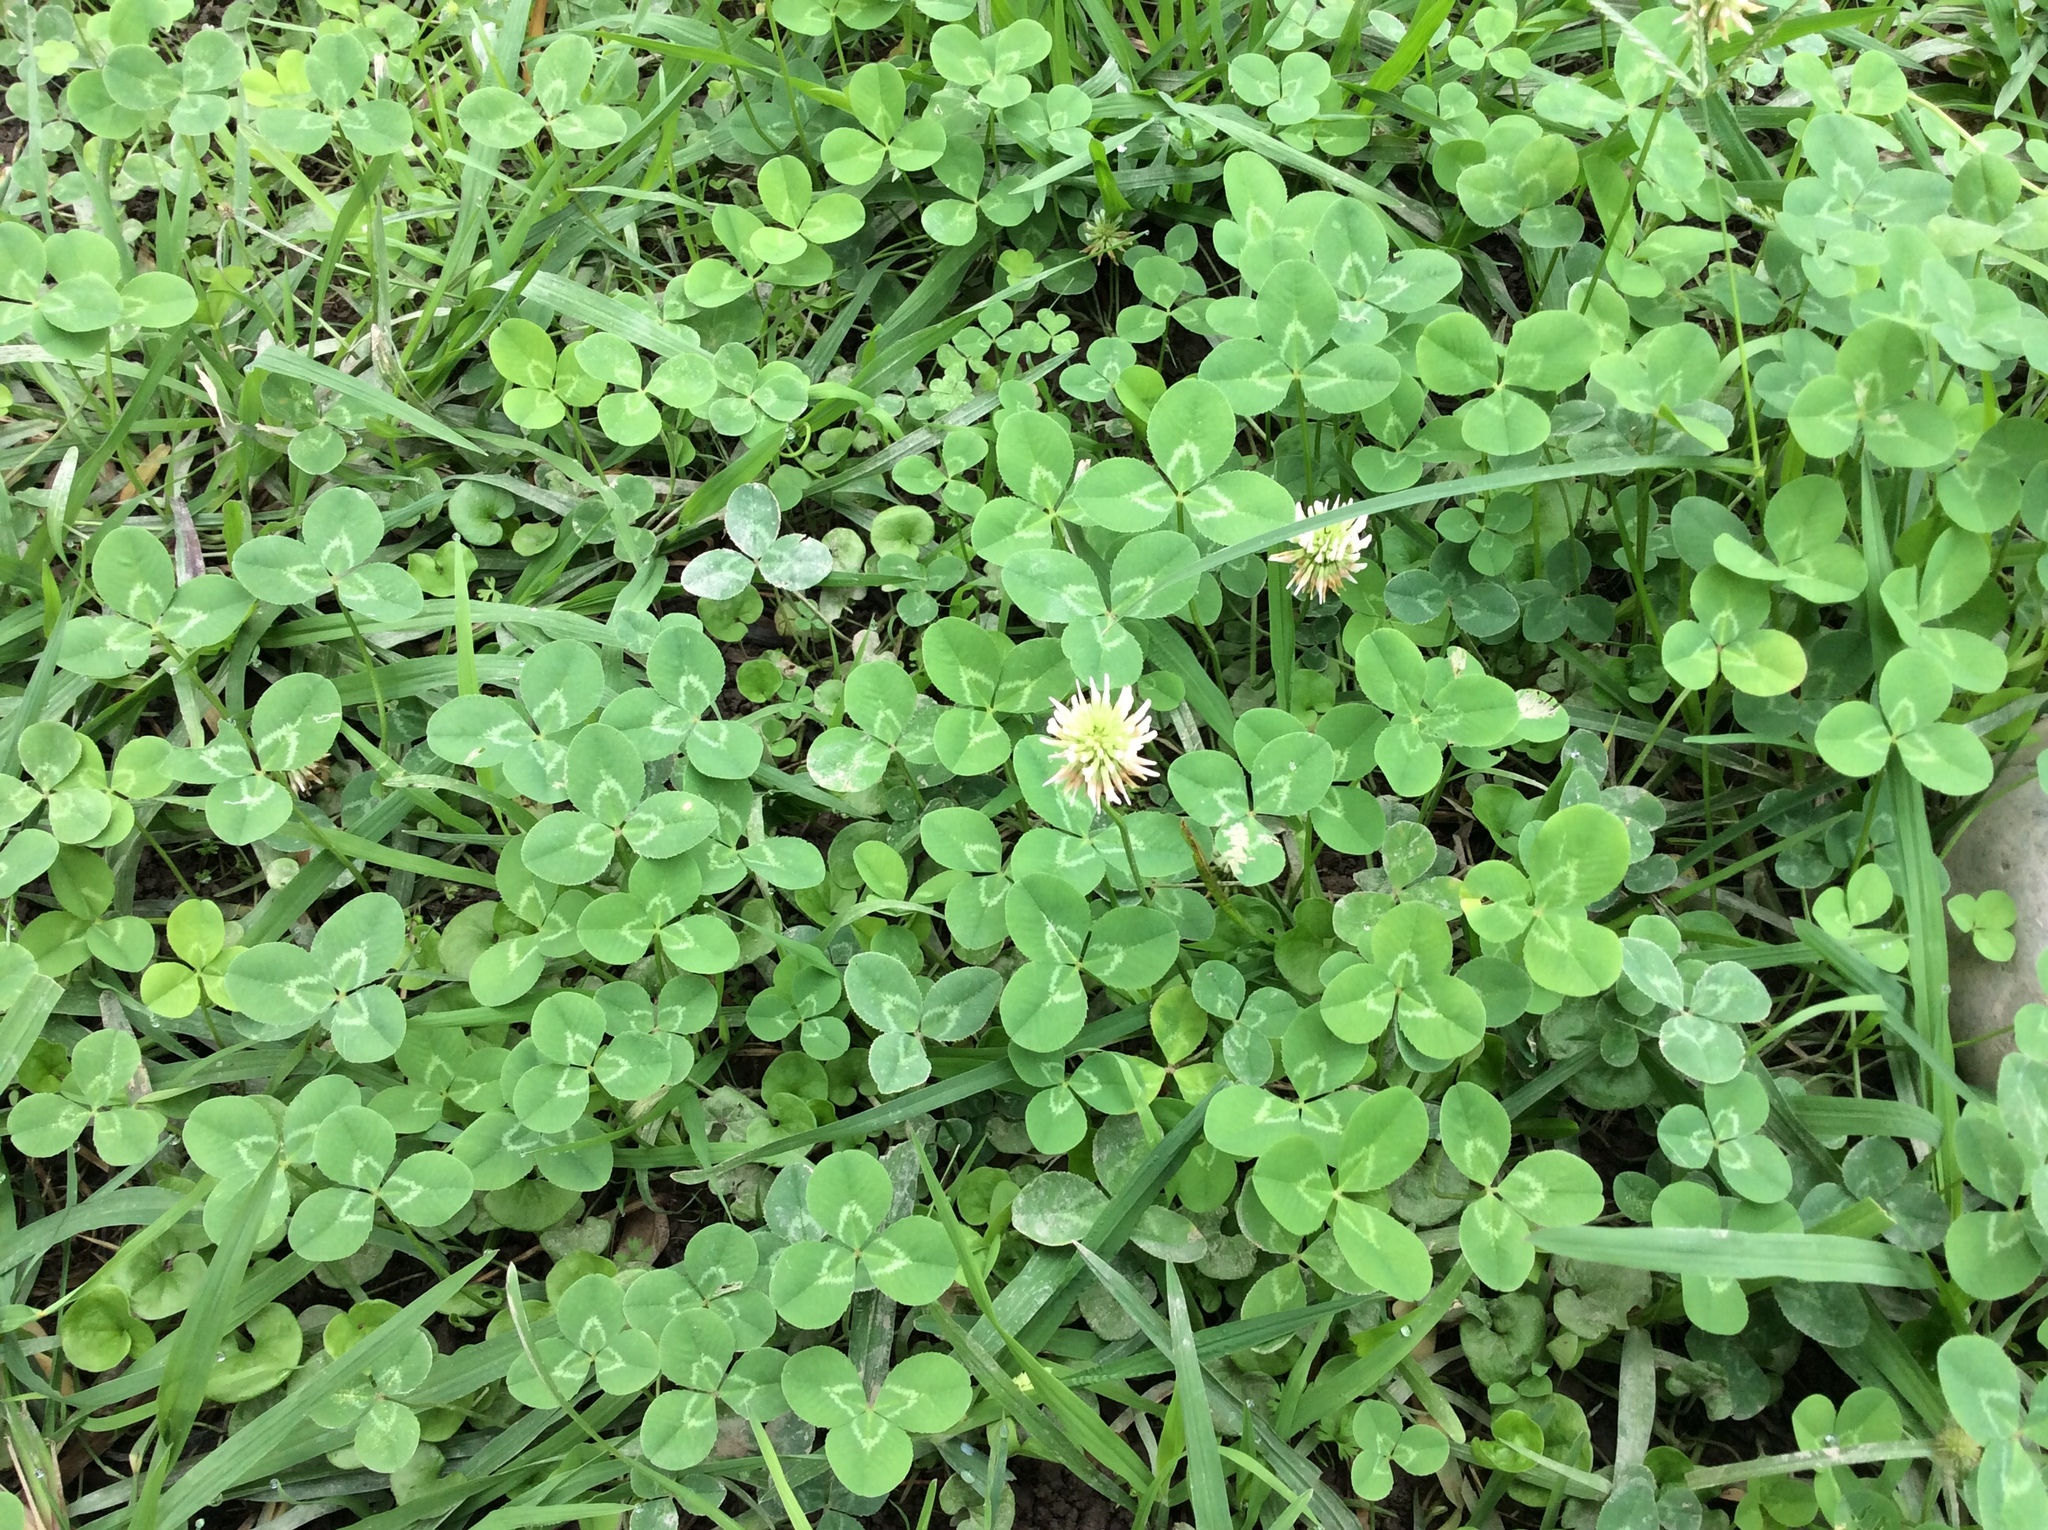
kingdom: Plantae
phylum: Tracheophyta
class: Magnoliopsida
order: Fabales
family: Fabaceae
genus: Trifolium
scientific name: Trifolium repens
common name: White clover
